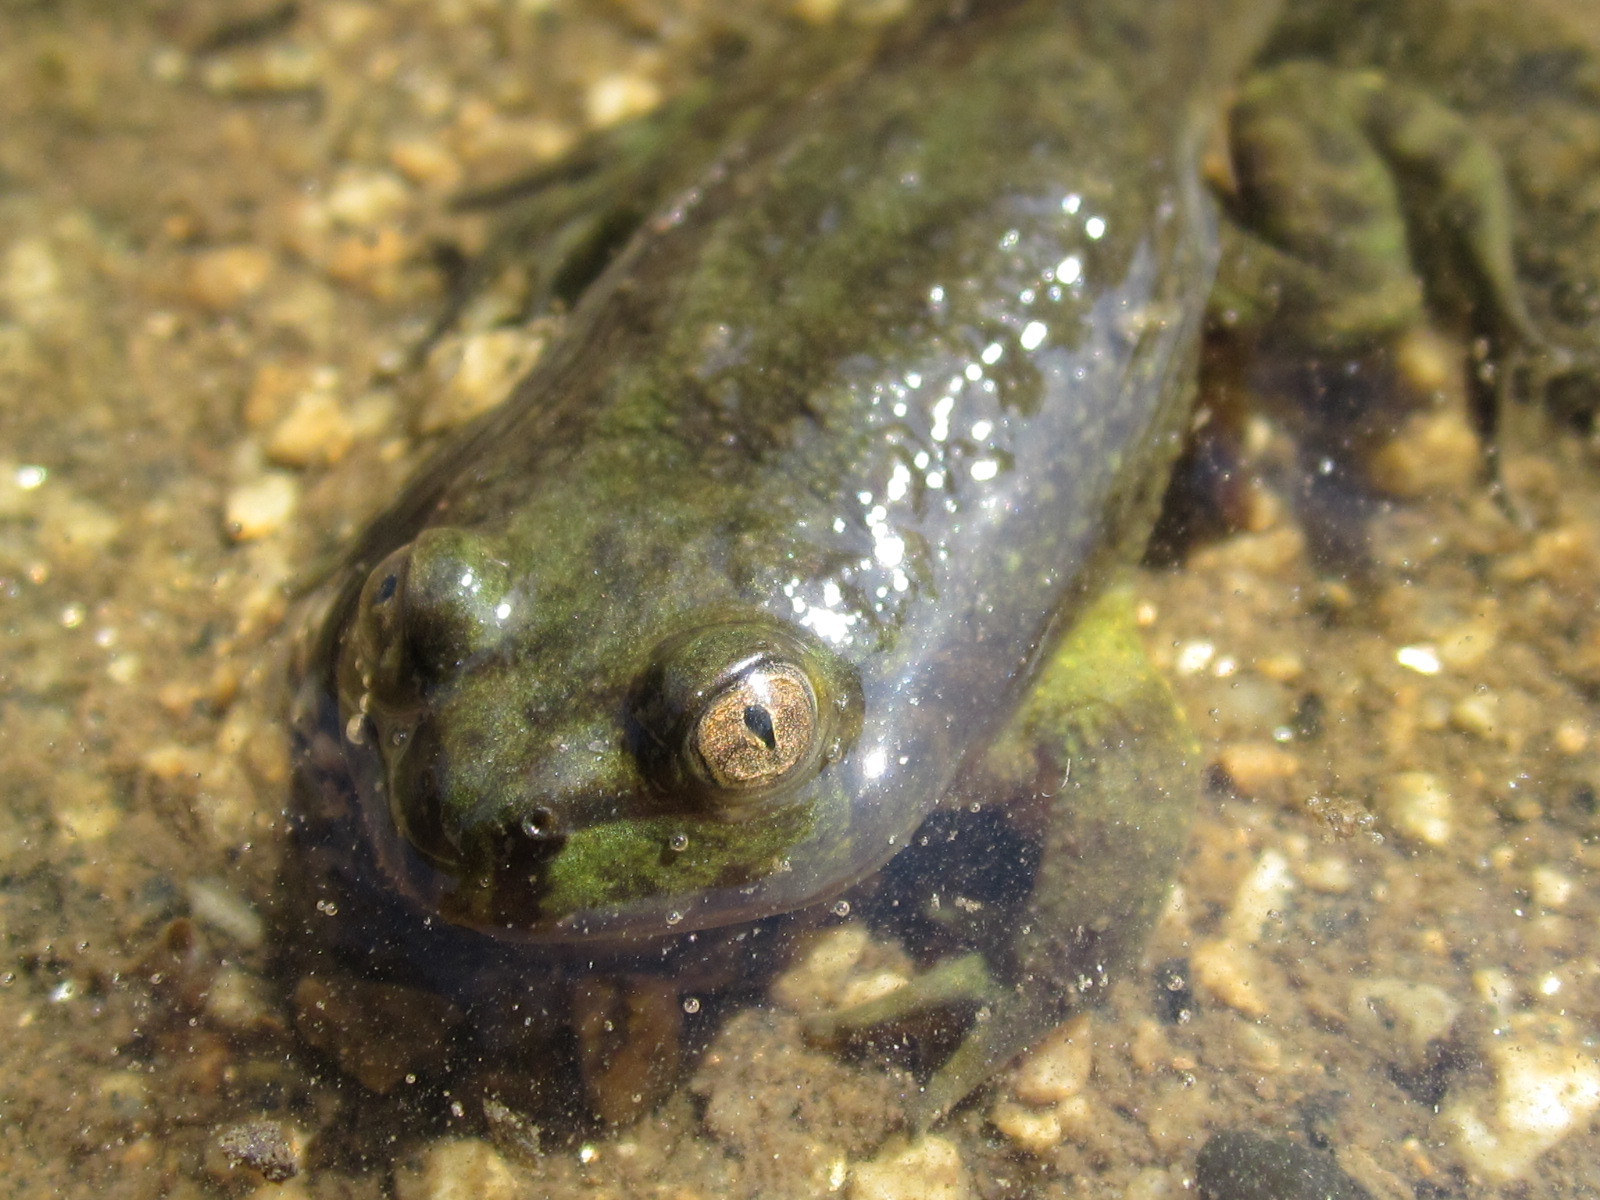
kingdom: Animalia
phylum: Chordata
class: Amphibia
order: Anura
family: Calyptocephalellidae
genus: Calyptocephalella
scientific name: Calyptocephalella gayi
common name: Chilean toad
